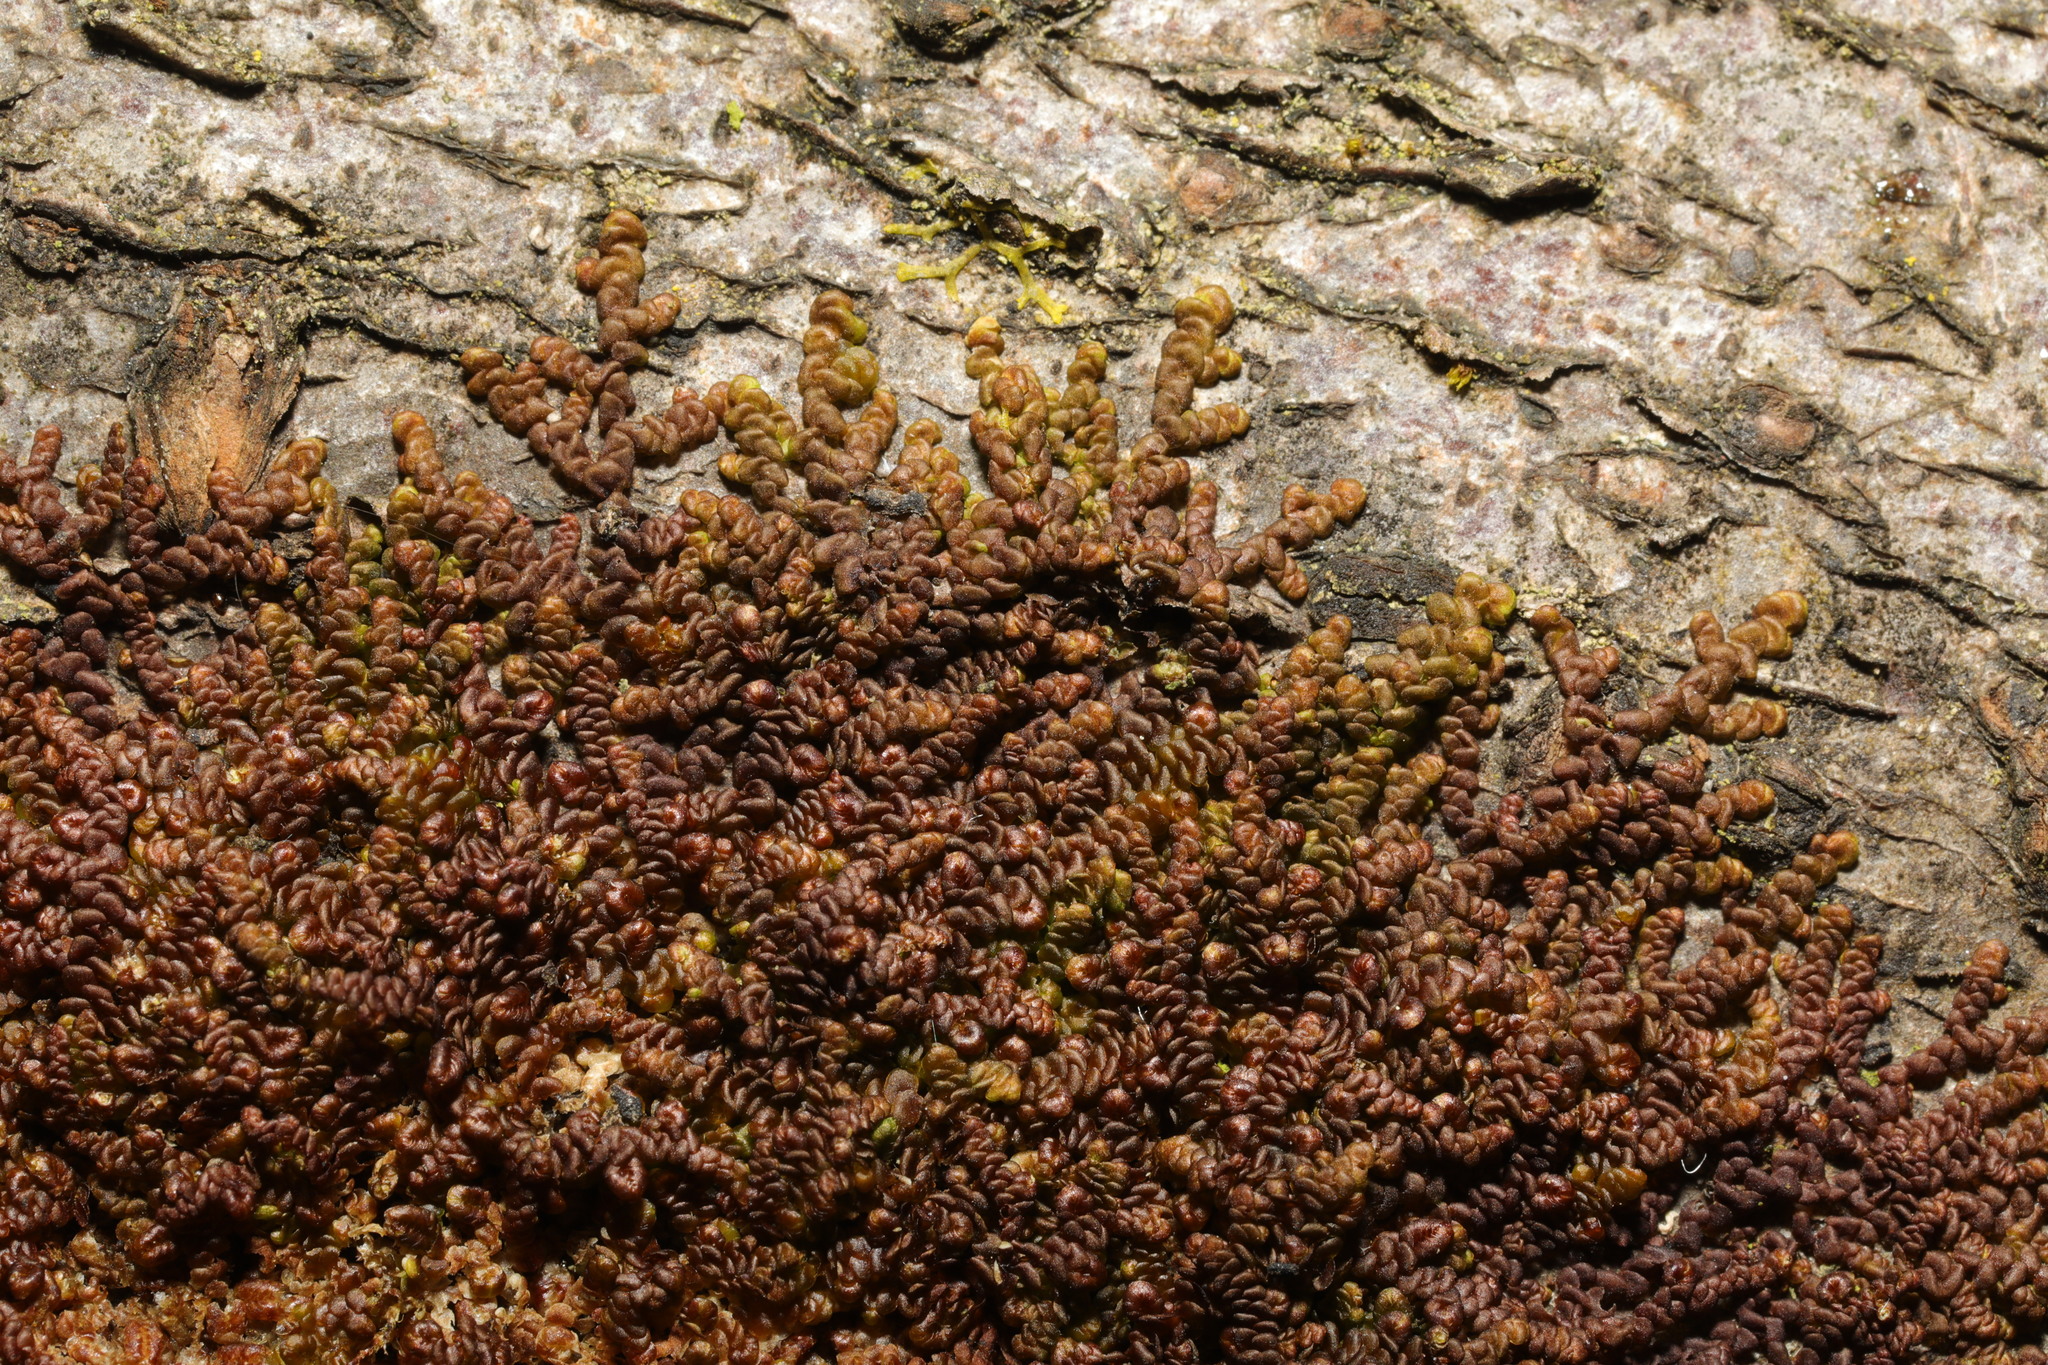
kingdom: Plantae
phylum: Marchantiophyta
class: Jungermanniopsida
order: Porellales
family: Frullaniaceae
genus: Frullania
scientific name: Frullania dilatata
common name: Dilated scalewort
